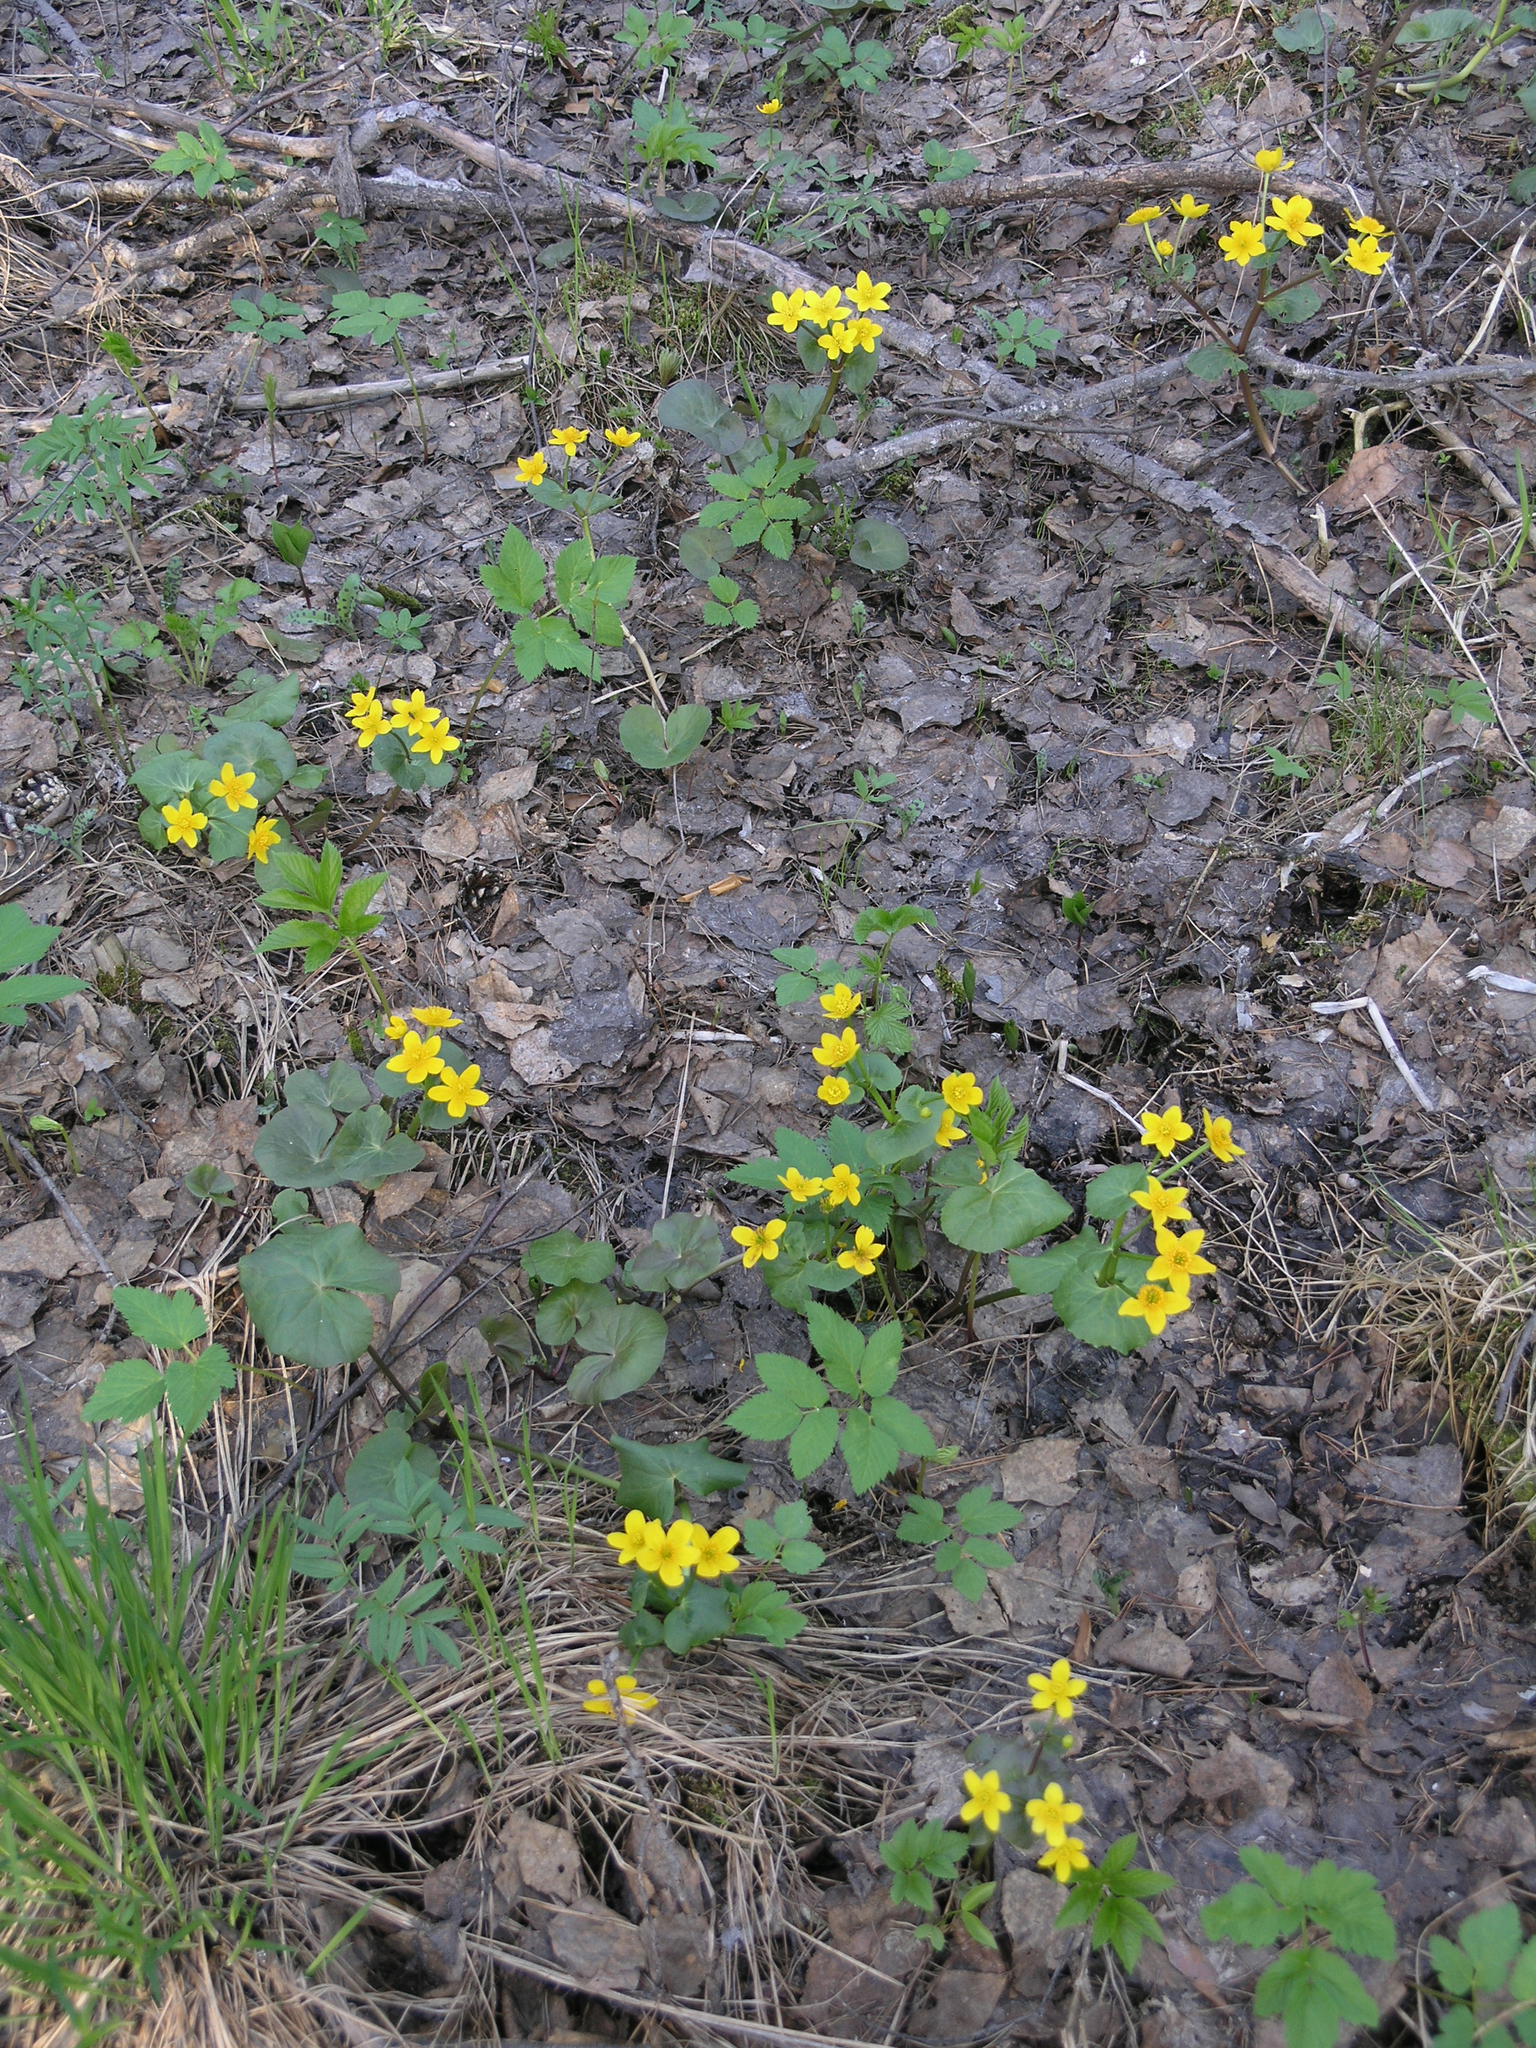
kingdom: Plantae
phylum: Tracheophyta
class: Magnoliopsida
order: Ranunculales
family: Ranunculaceae
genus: Caltha
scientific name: Caltha palustris
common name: Marsh marigold
